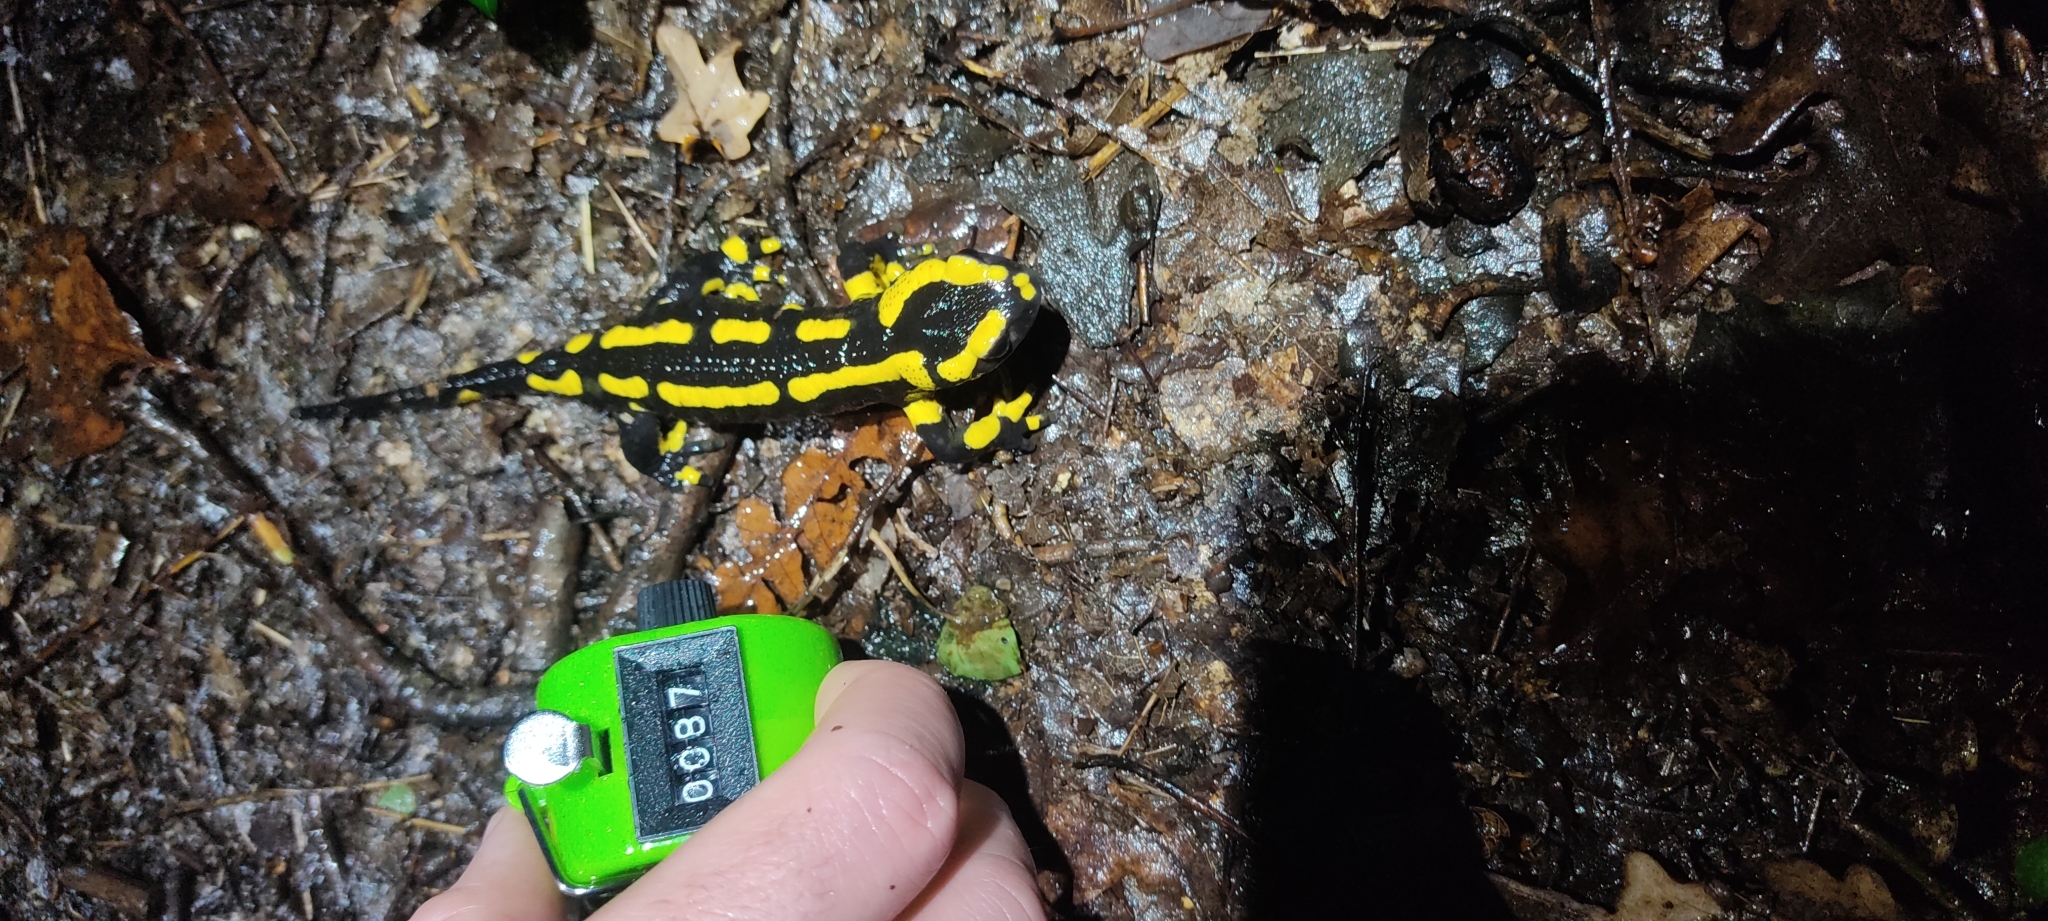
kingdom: Animalia
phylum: Chordata
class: Amphibia
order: Caudata
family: Salamandridae
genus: Salamandra
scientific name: Salamandra salamandra
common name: Fire salamander
